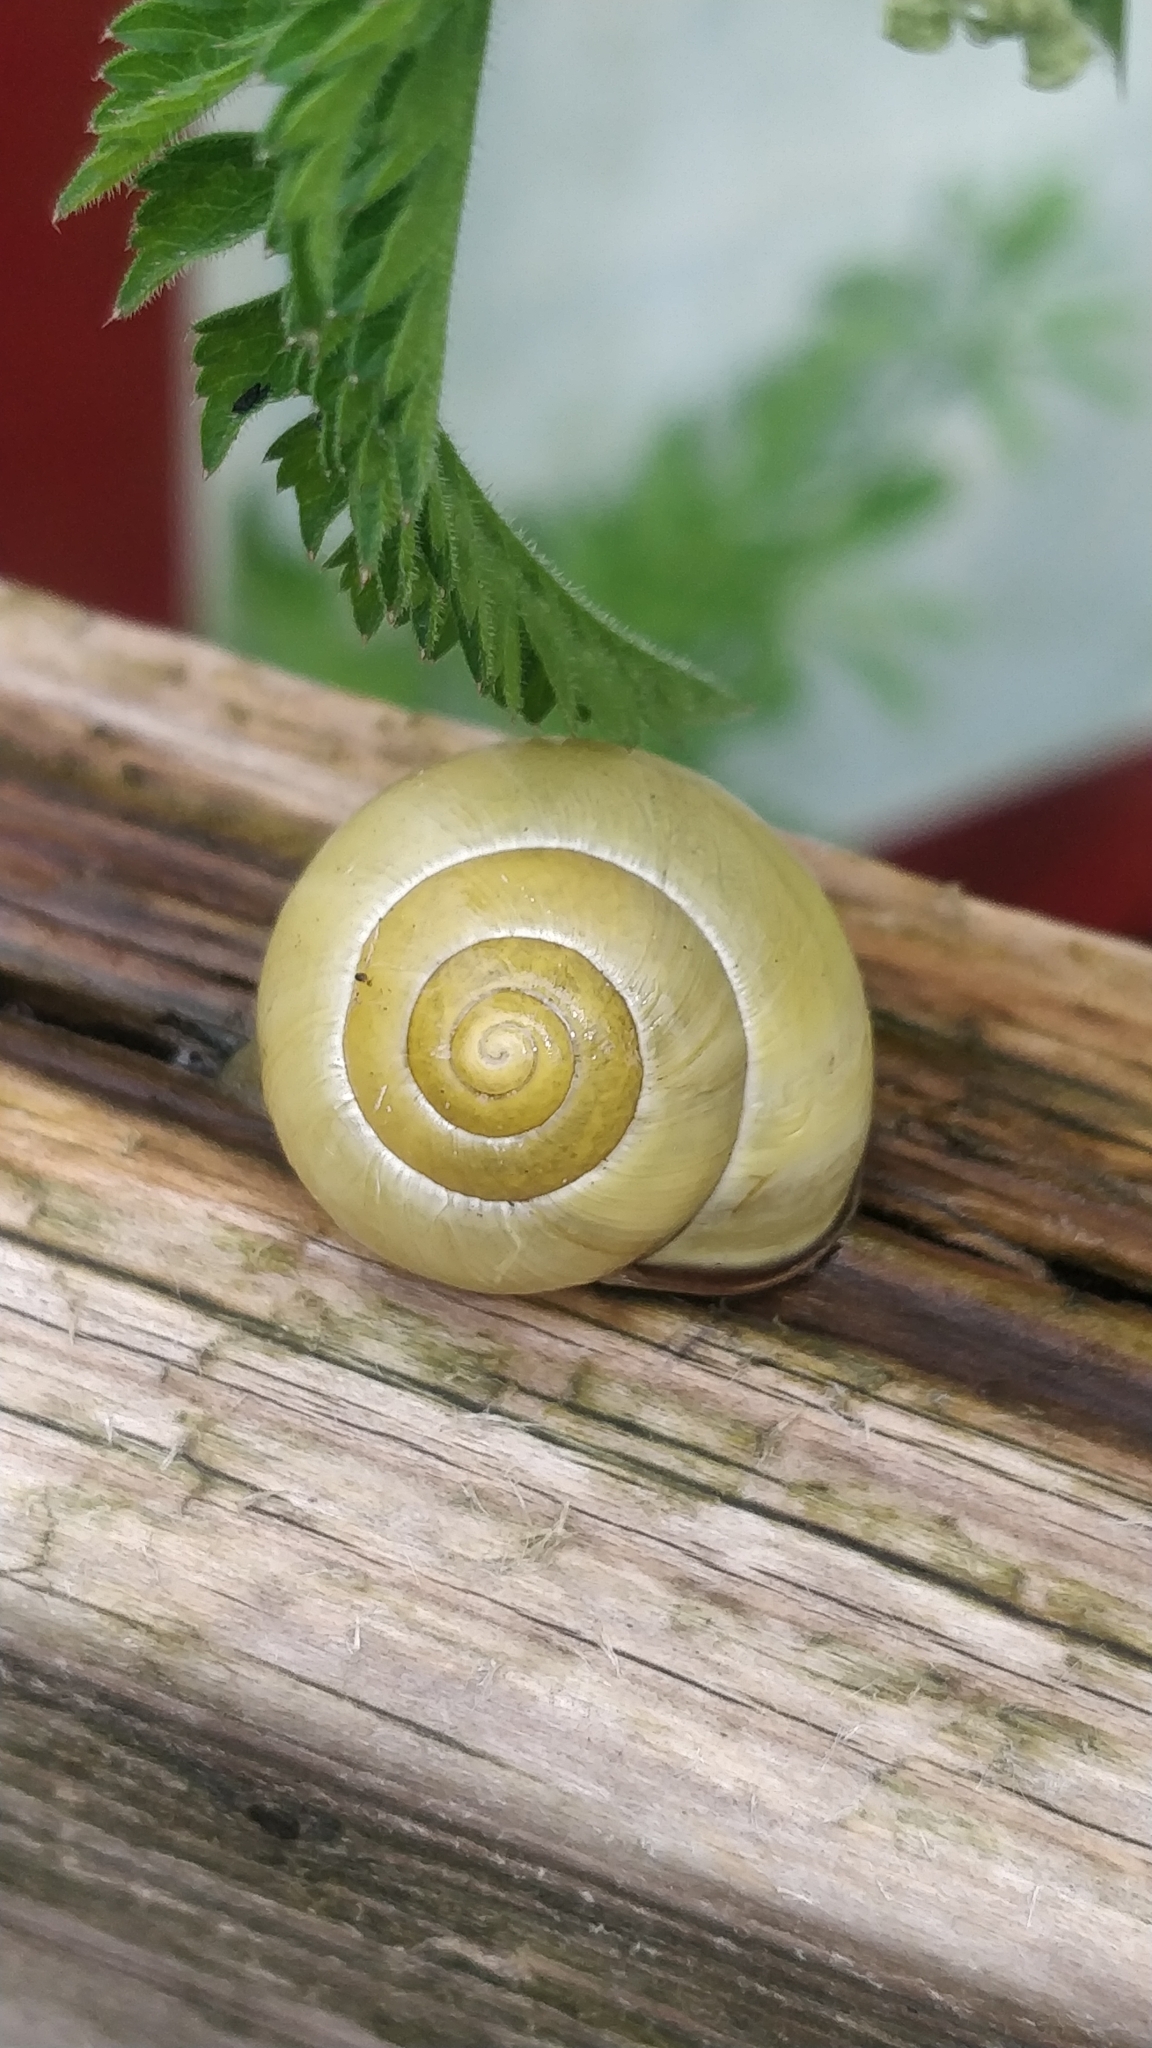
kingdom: Animalia
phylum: Mollusca
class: Gastropoda
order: Stylommatophora
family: Helicidae
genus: Cepaea
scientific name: Cepaea nemoralis
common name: Grovesnail
